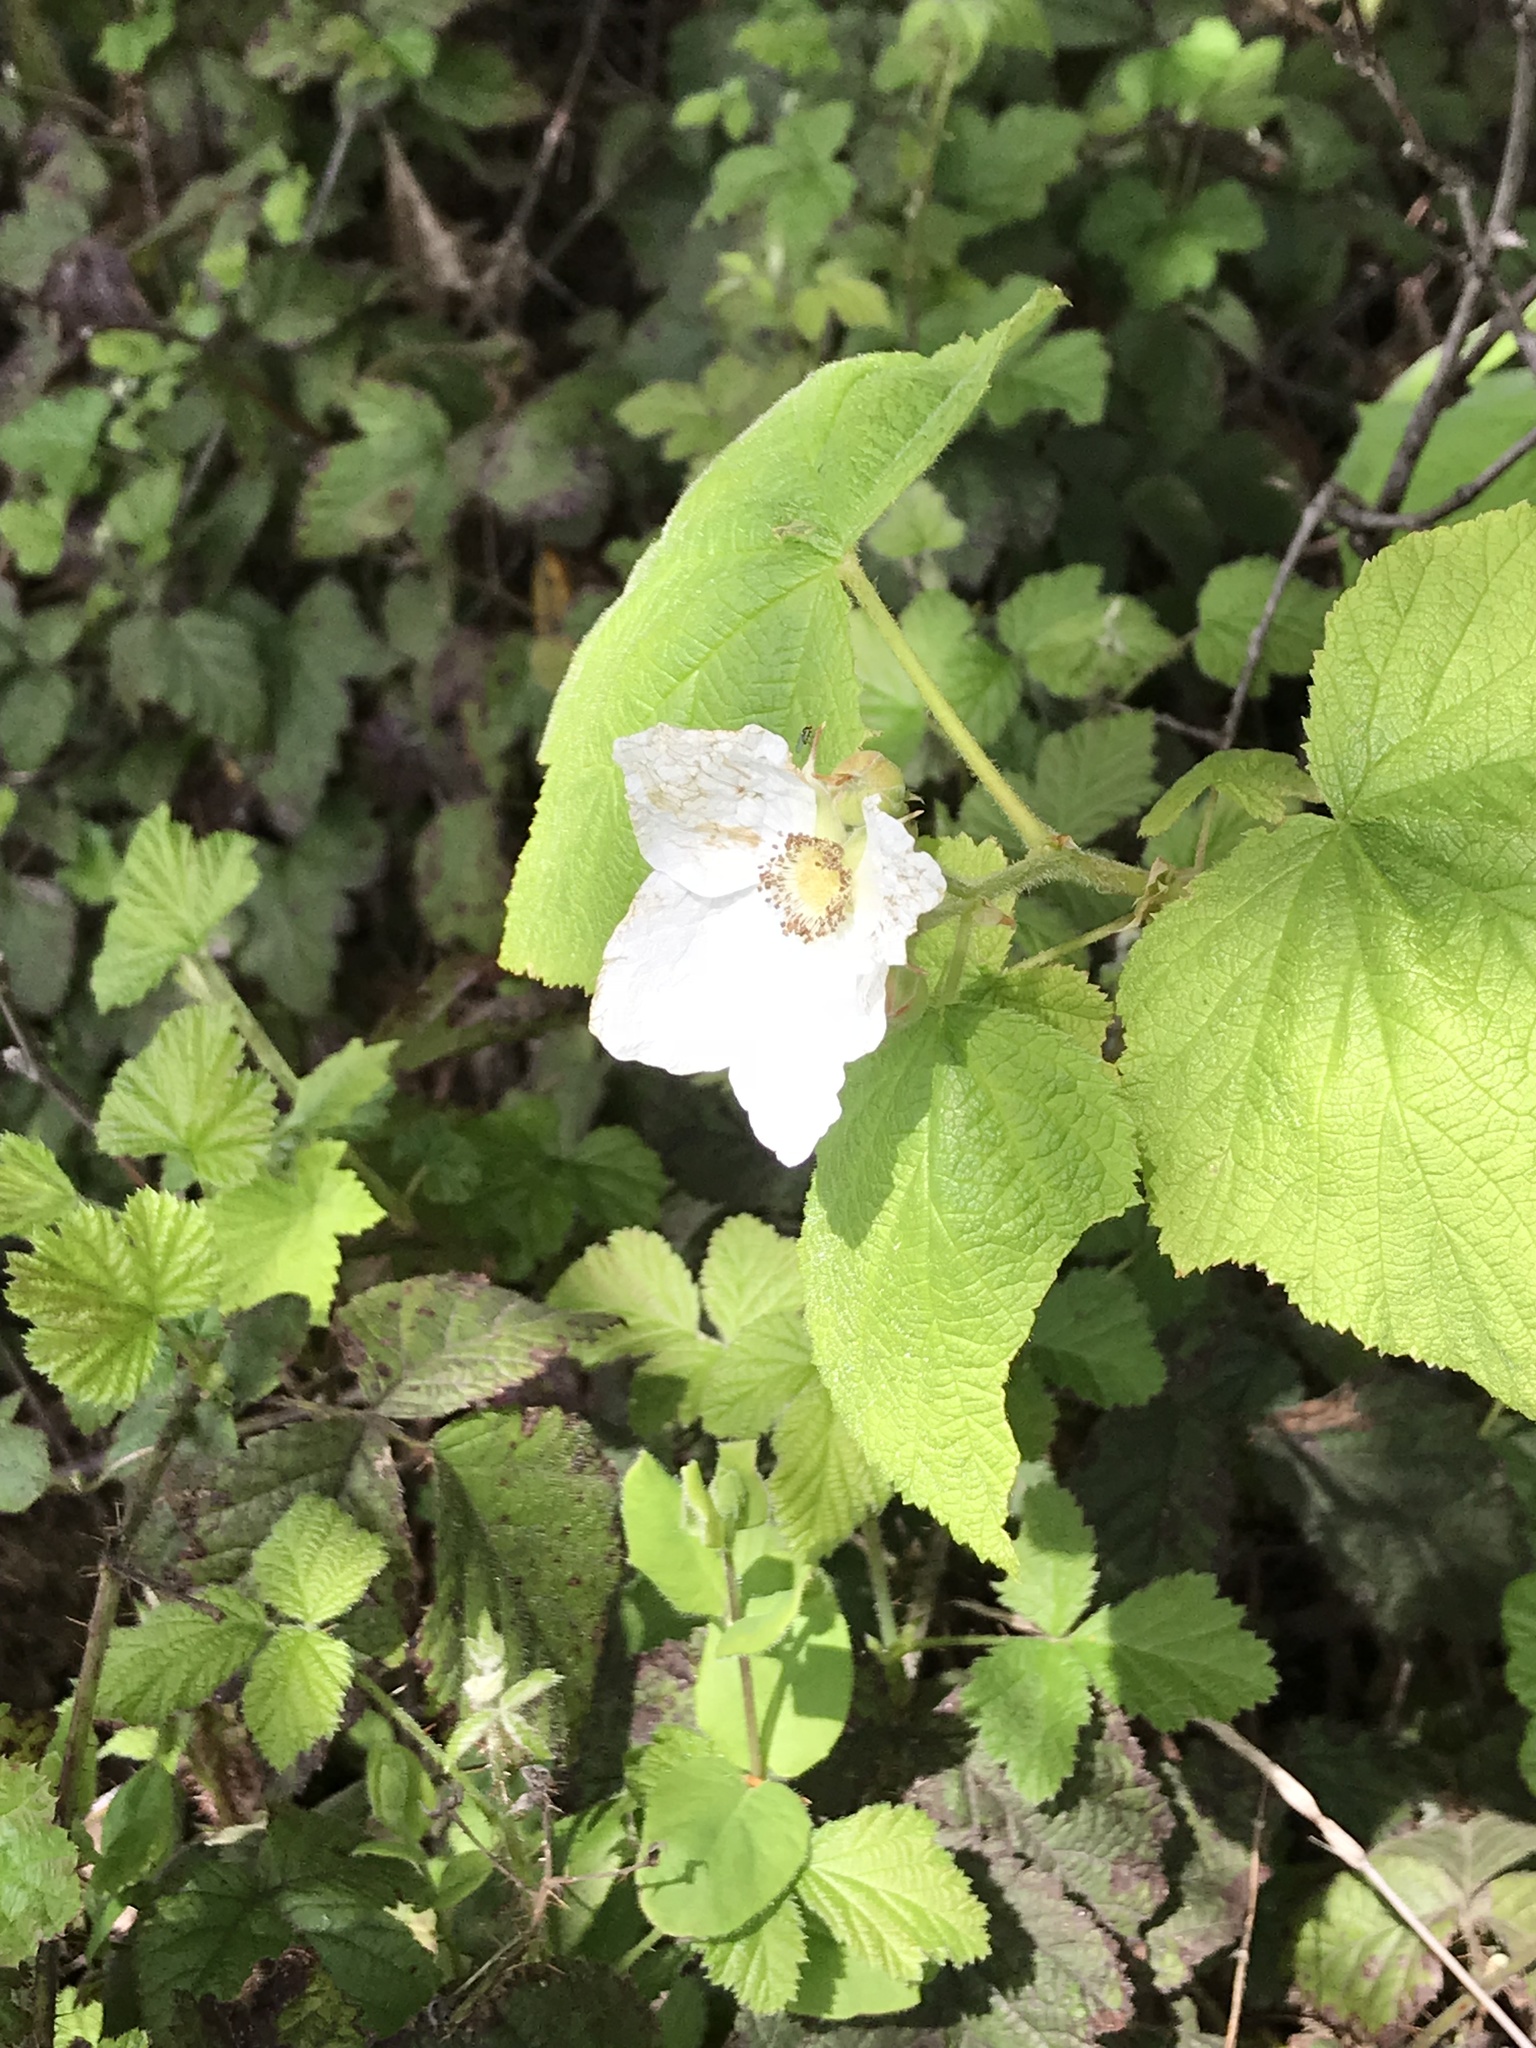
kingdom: Plantae
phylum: Tracheophyta
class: Magnoliopsida
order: Rosales
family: Rosaceae
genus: Rubus
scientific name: Rubus parviflorus
